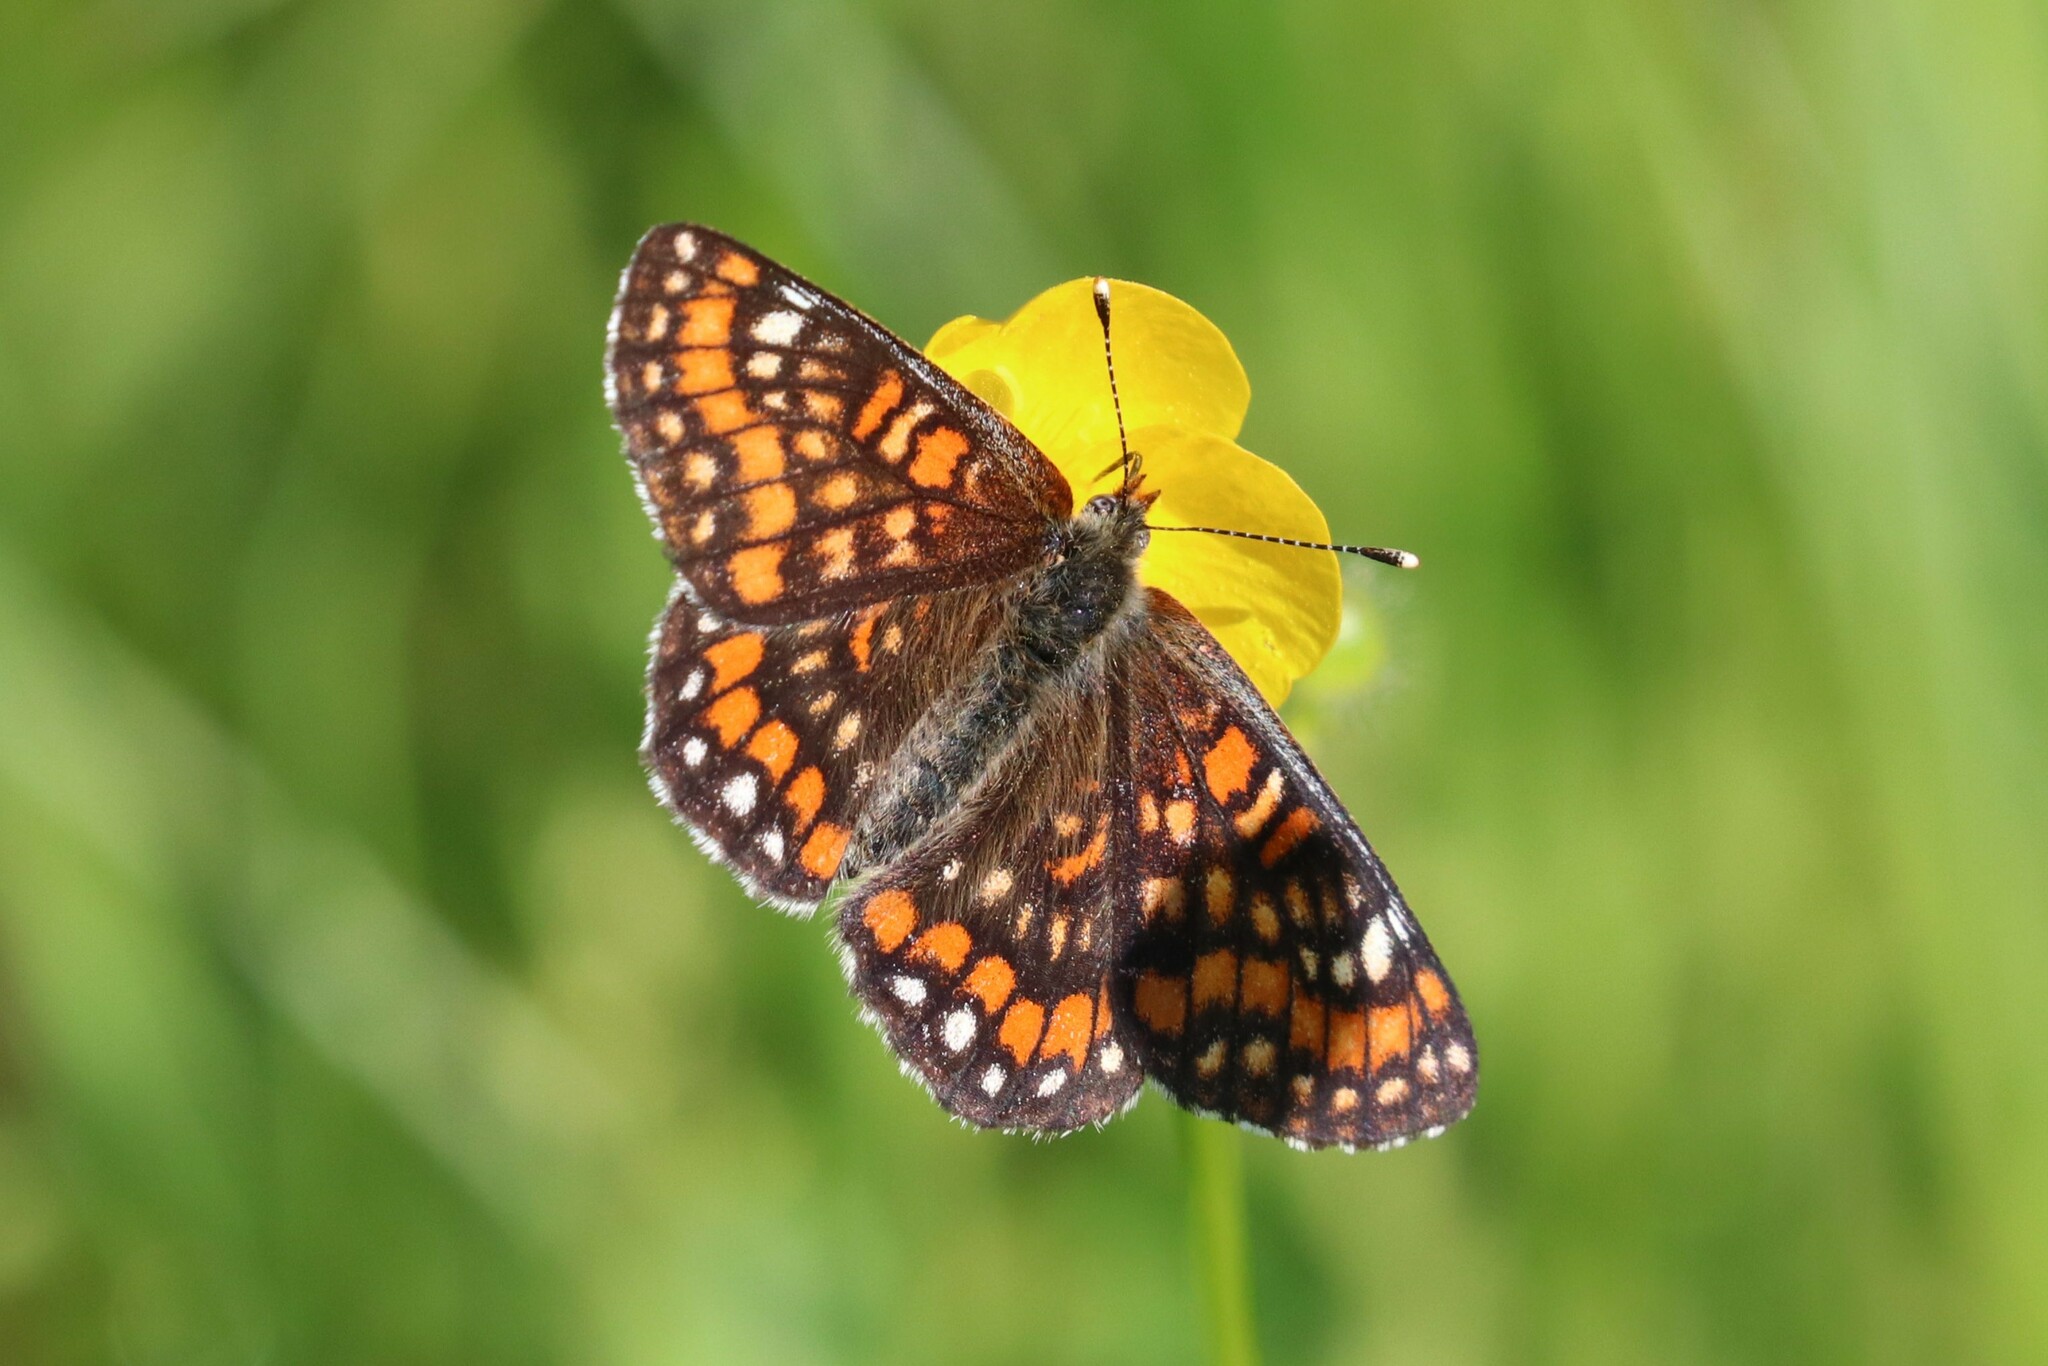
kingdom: Animalia
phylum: Arthropoda
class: Insecta
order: Lepidoptera
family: Nymphalidae
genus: Euphydryas
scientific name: Euphydryas maturna
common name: Scarce fritillary
